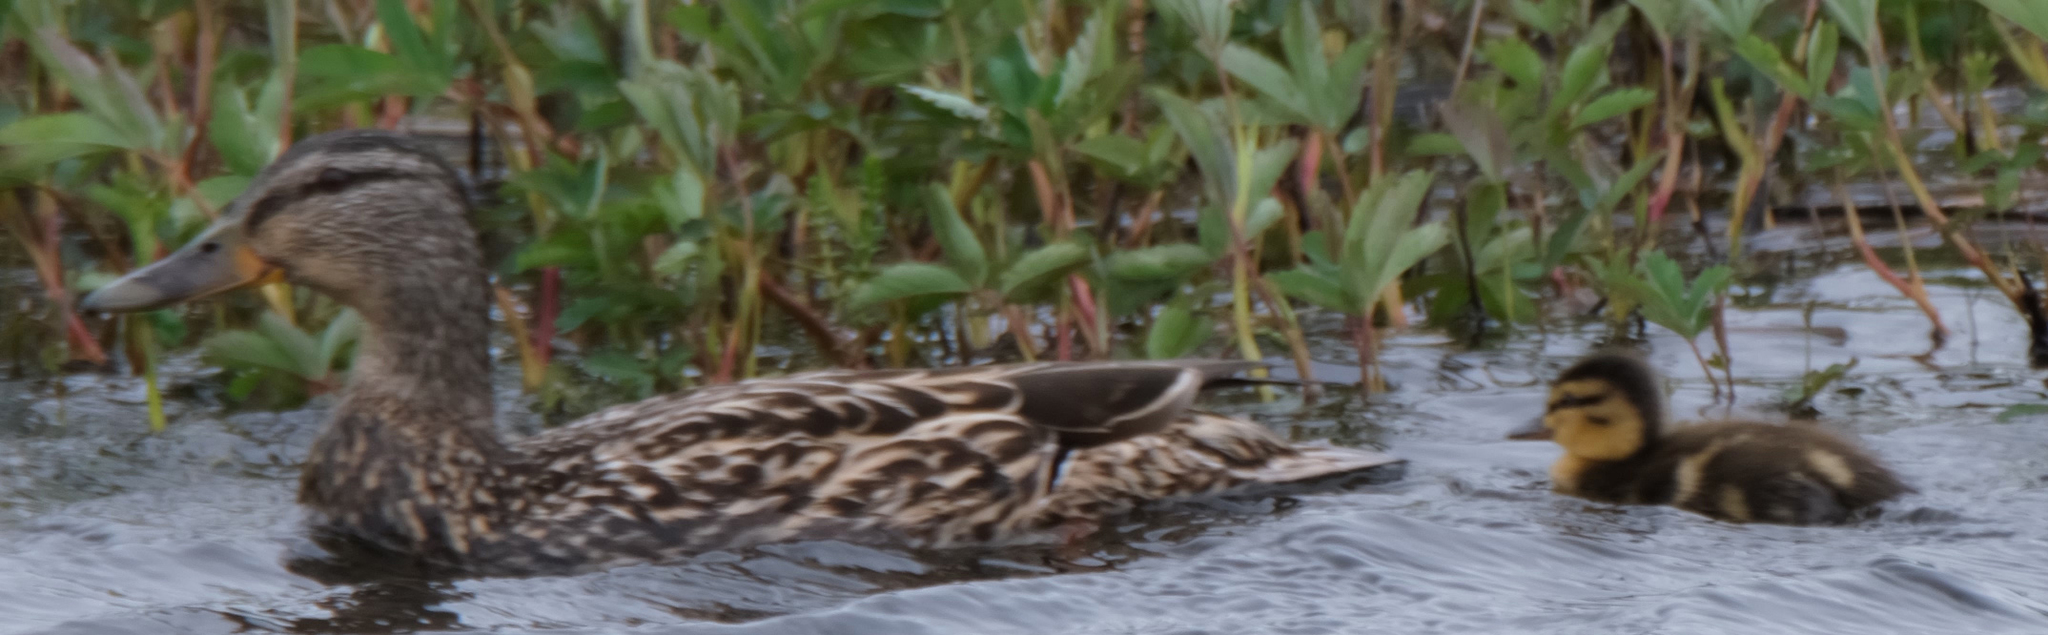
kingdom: Animalia
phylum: Chordata
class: Aves
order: Anseriformes
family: Anatidae
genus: Anas
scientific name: Anas platyrhynchos
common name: Mallard
